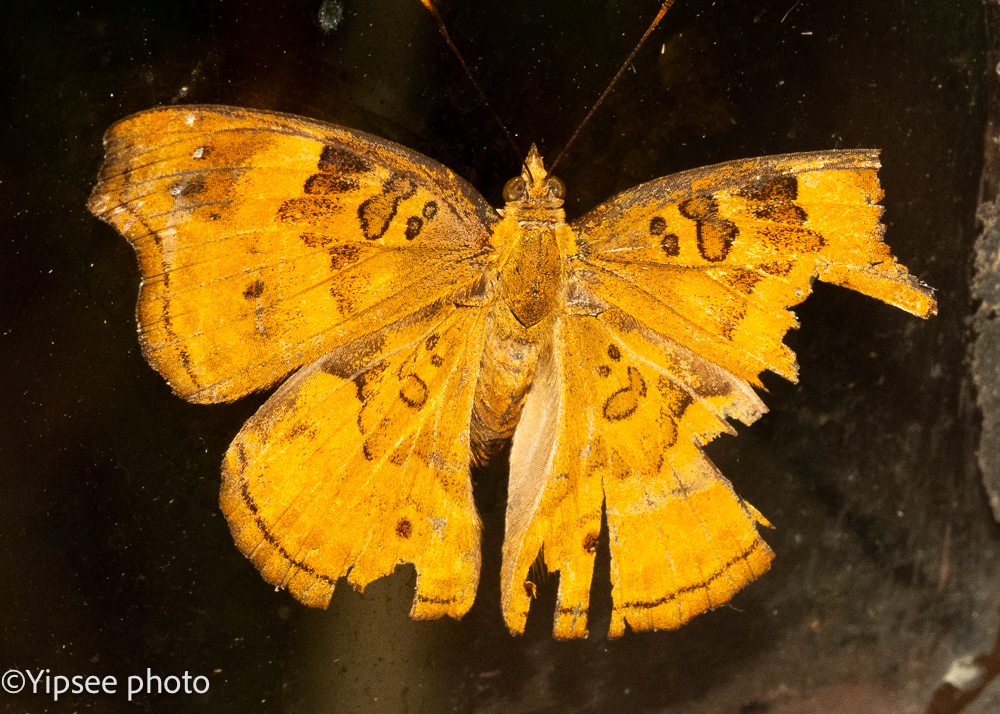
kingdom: Animalia
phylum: Arthropoda
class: Insecta
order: Lepidoptera
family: Nymphalidae
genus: Apatura
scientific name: Apatura Rohana spec
